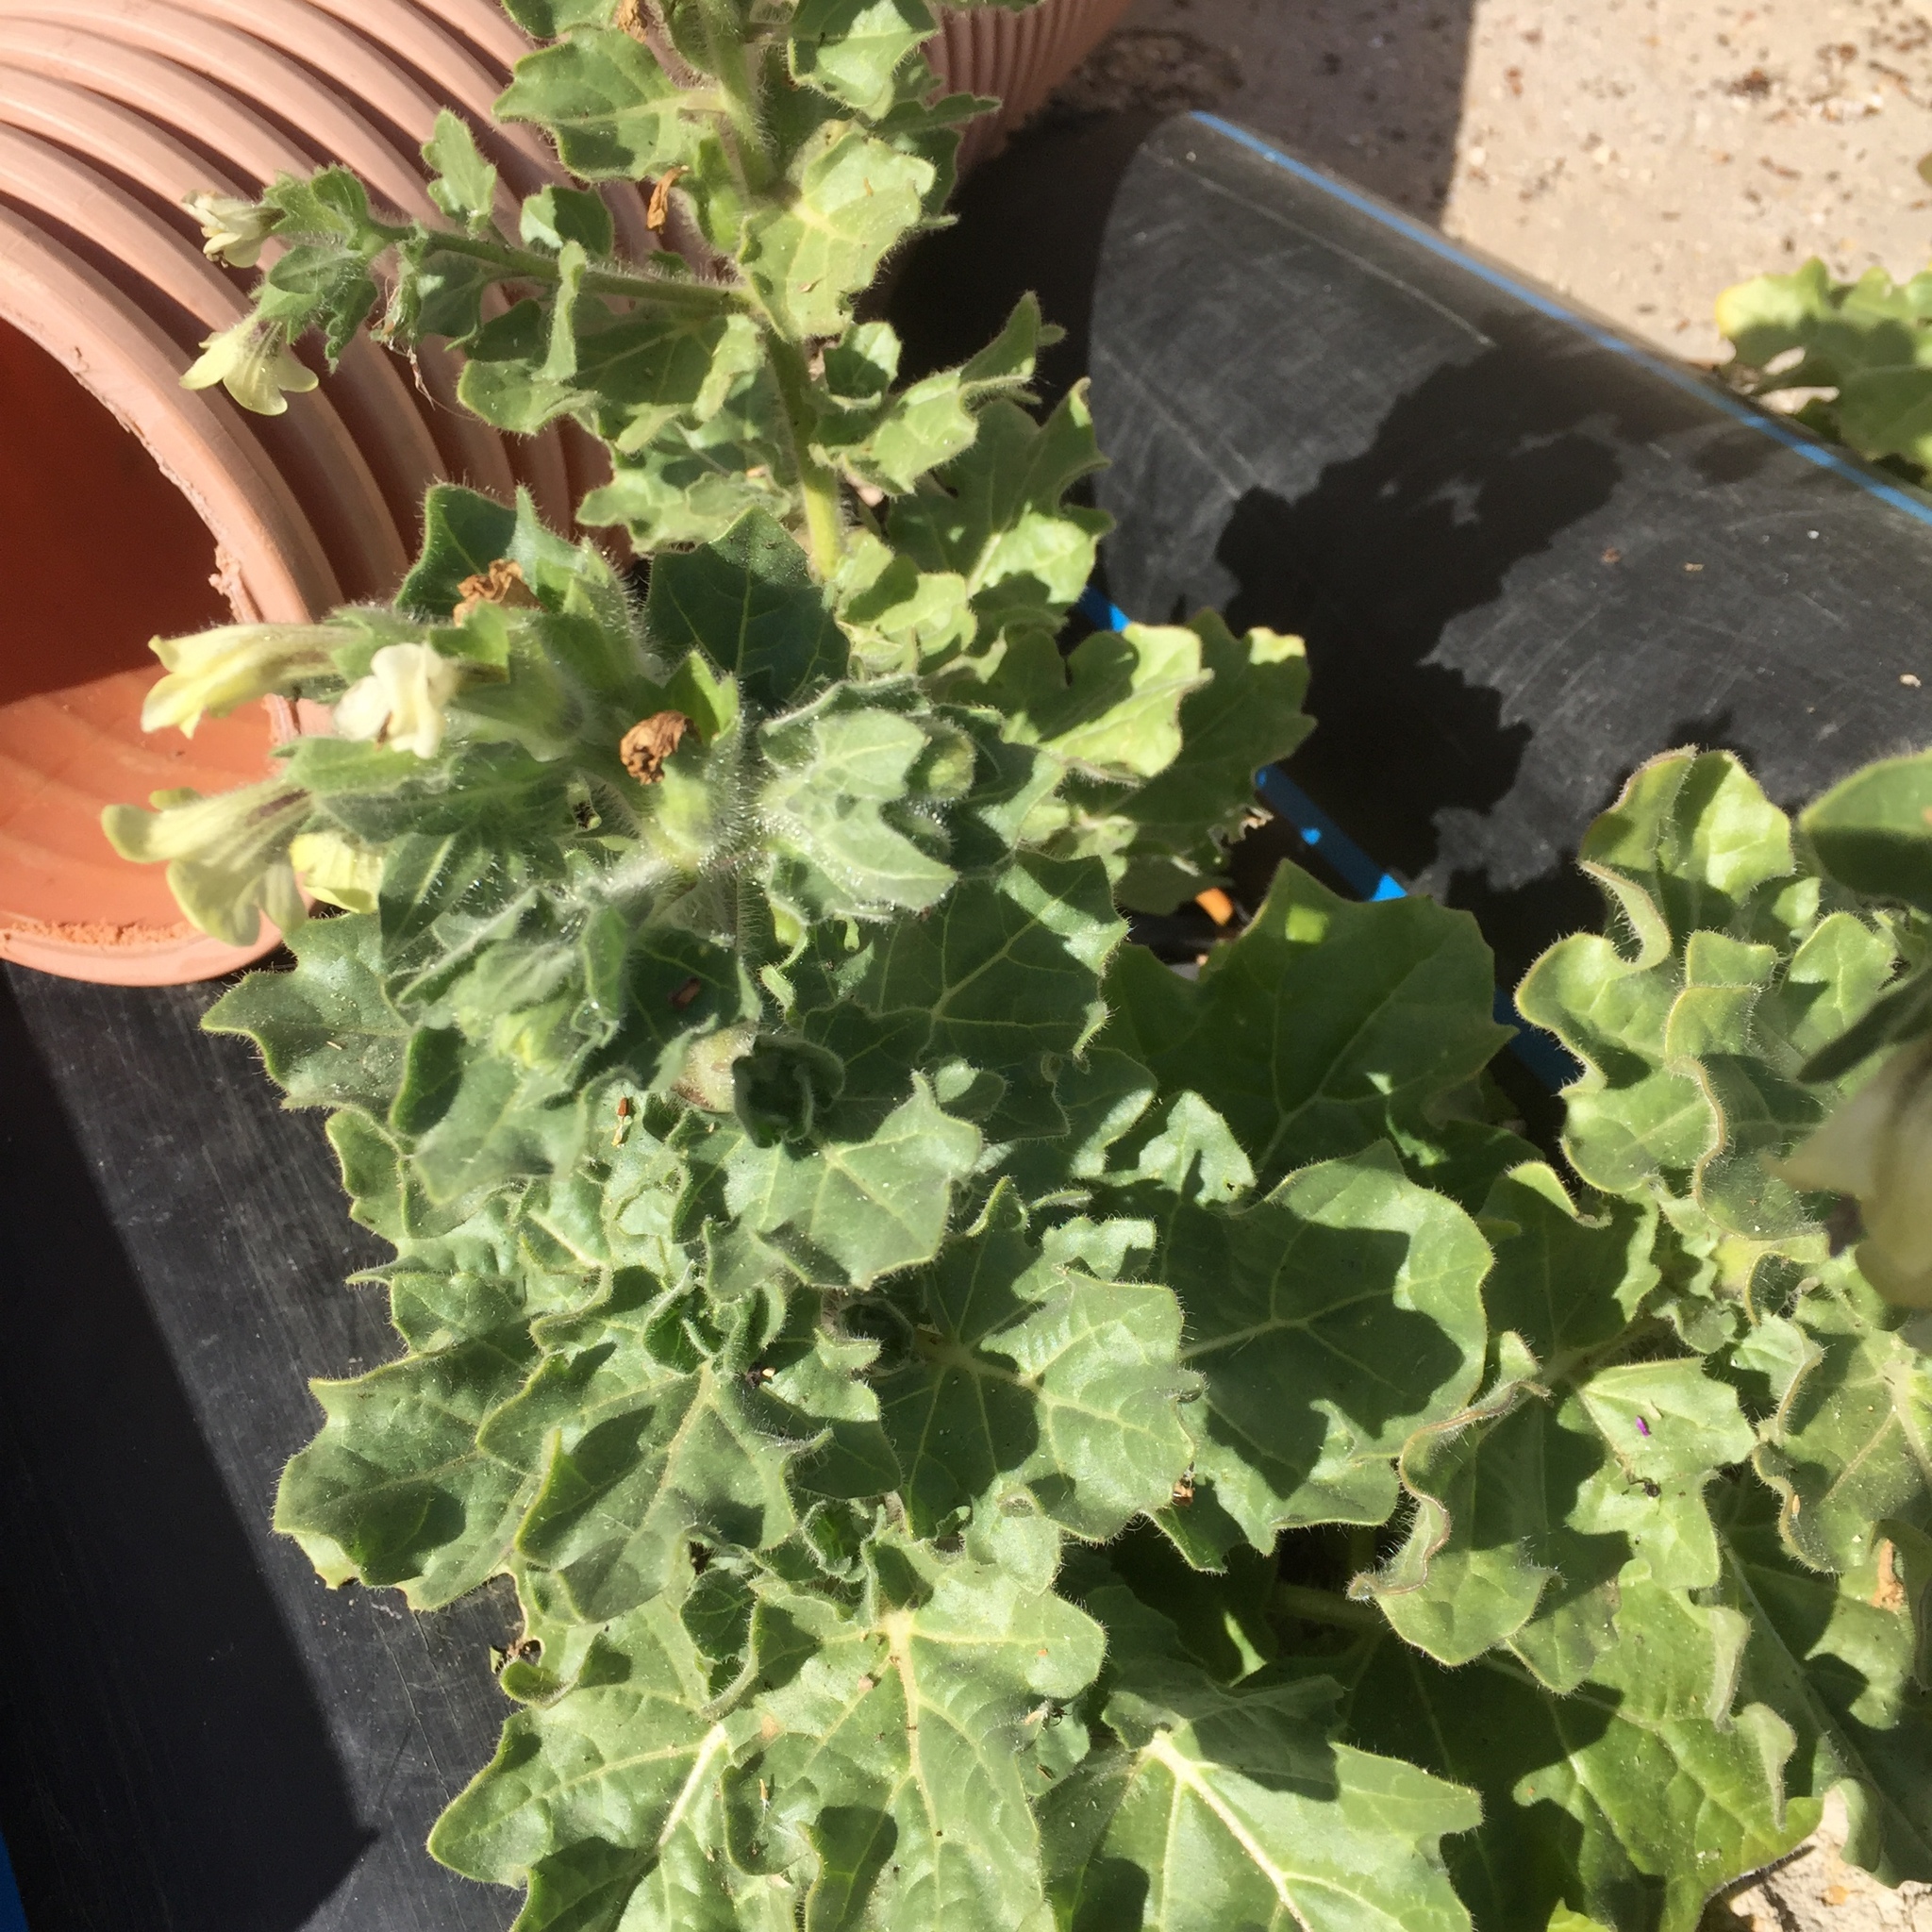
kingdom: Plantae
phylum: Tracheophyta
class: Magnoliopsida
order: Solanales
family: Solanaceae
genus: Hyoscyamus
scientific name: Hyoscyamus albus
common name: White henbane
